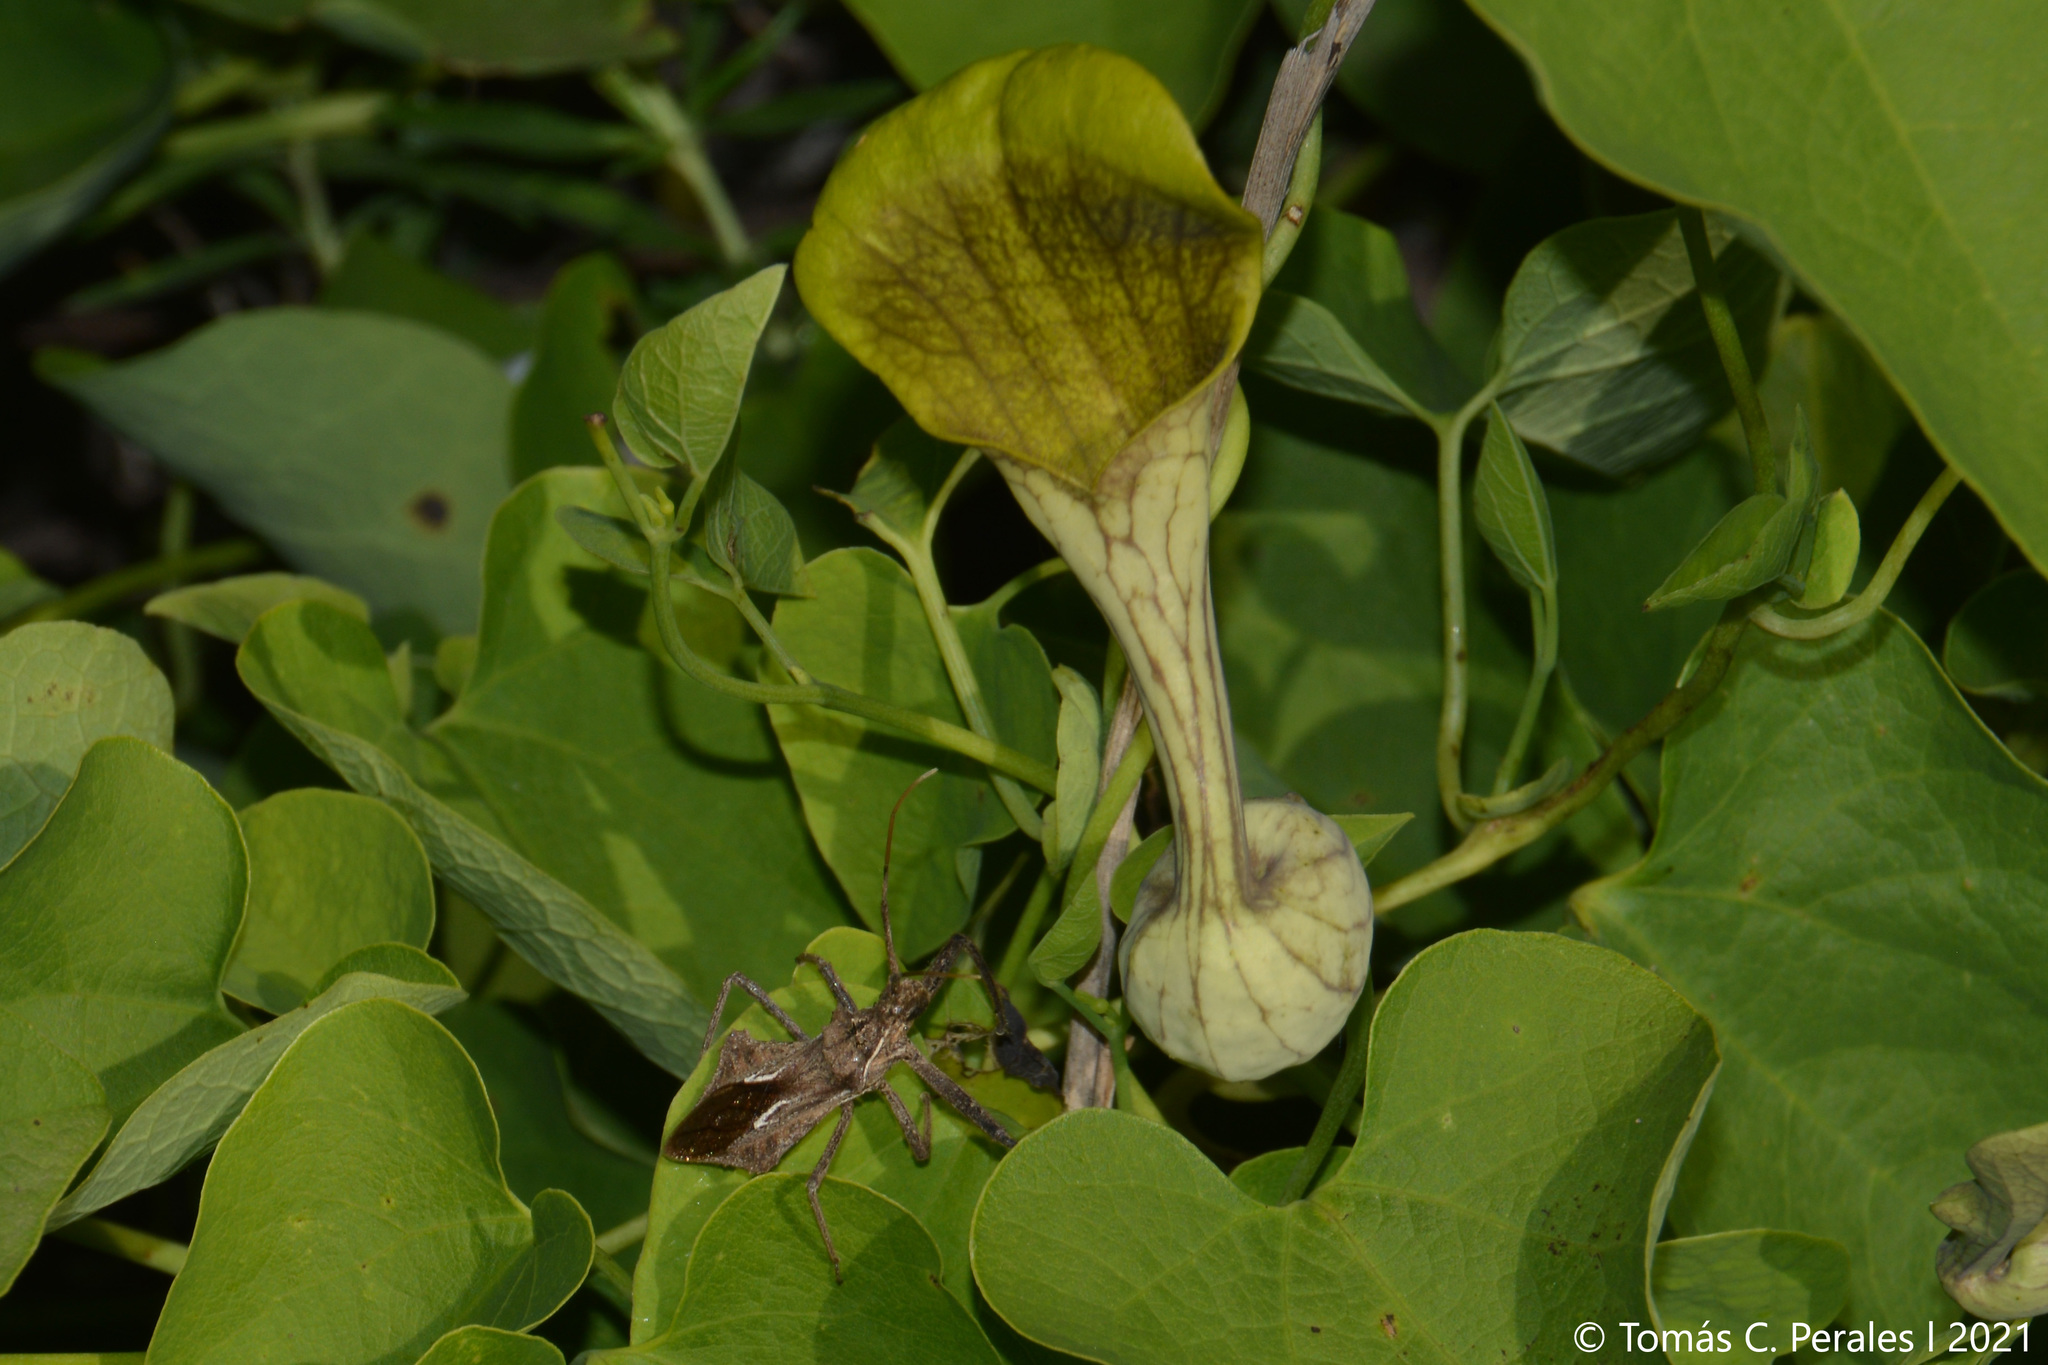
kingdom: Plantae
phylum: Tracheophyta
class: Magnoliopsida
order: Piperales
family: Aristolochiaceae
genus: Aristolochia
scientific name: Aristolochia argentina
